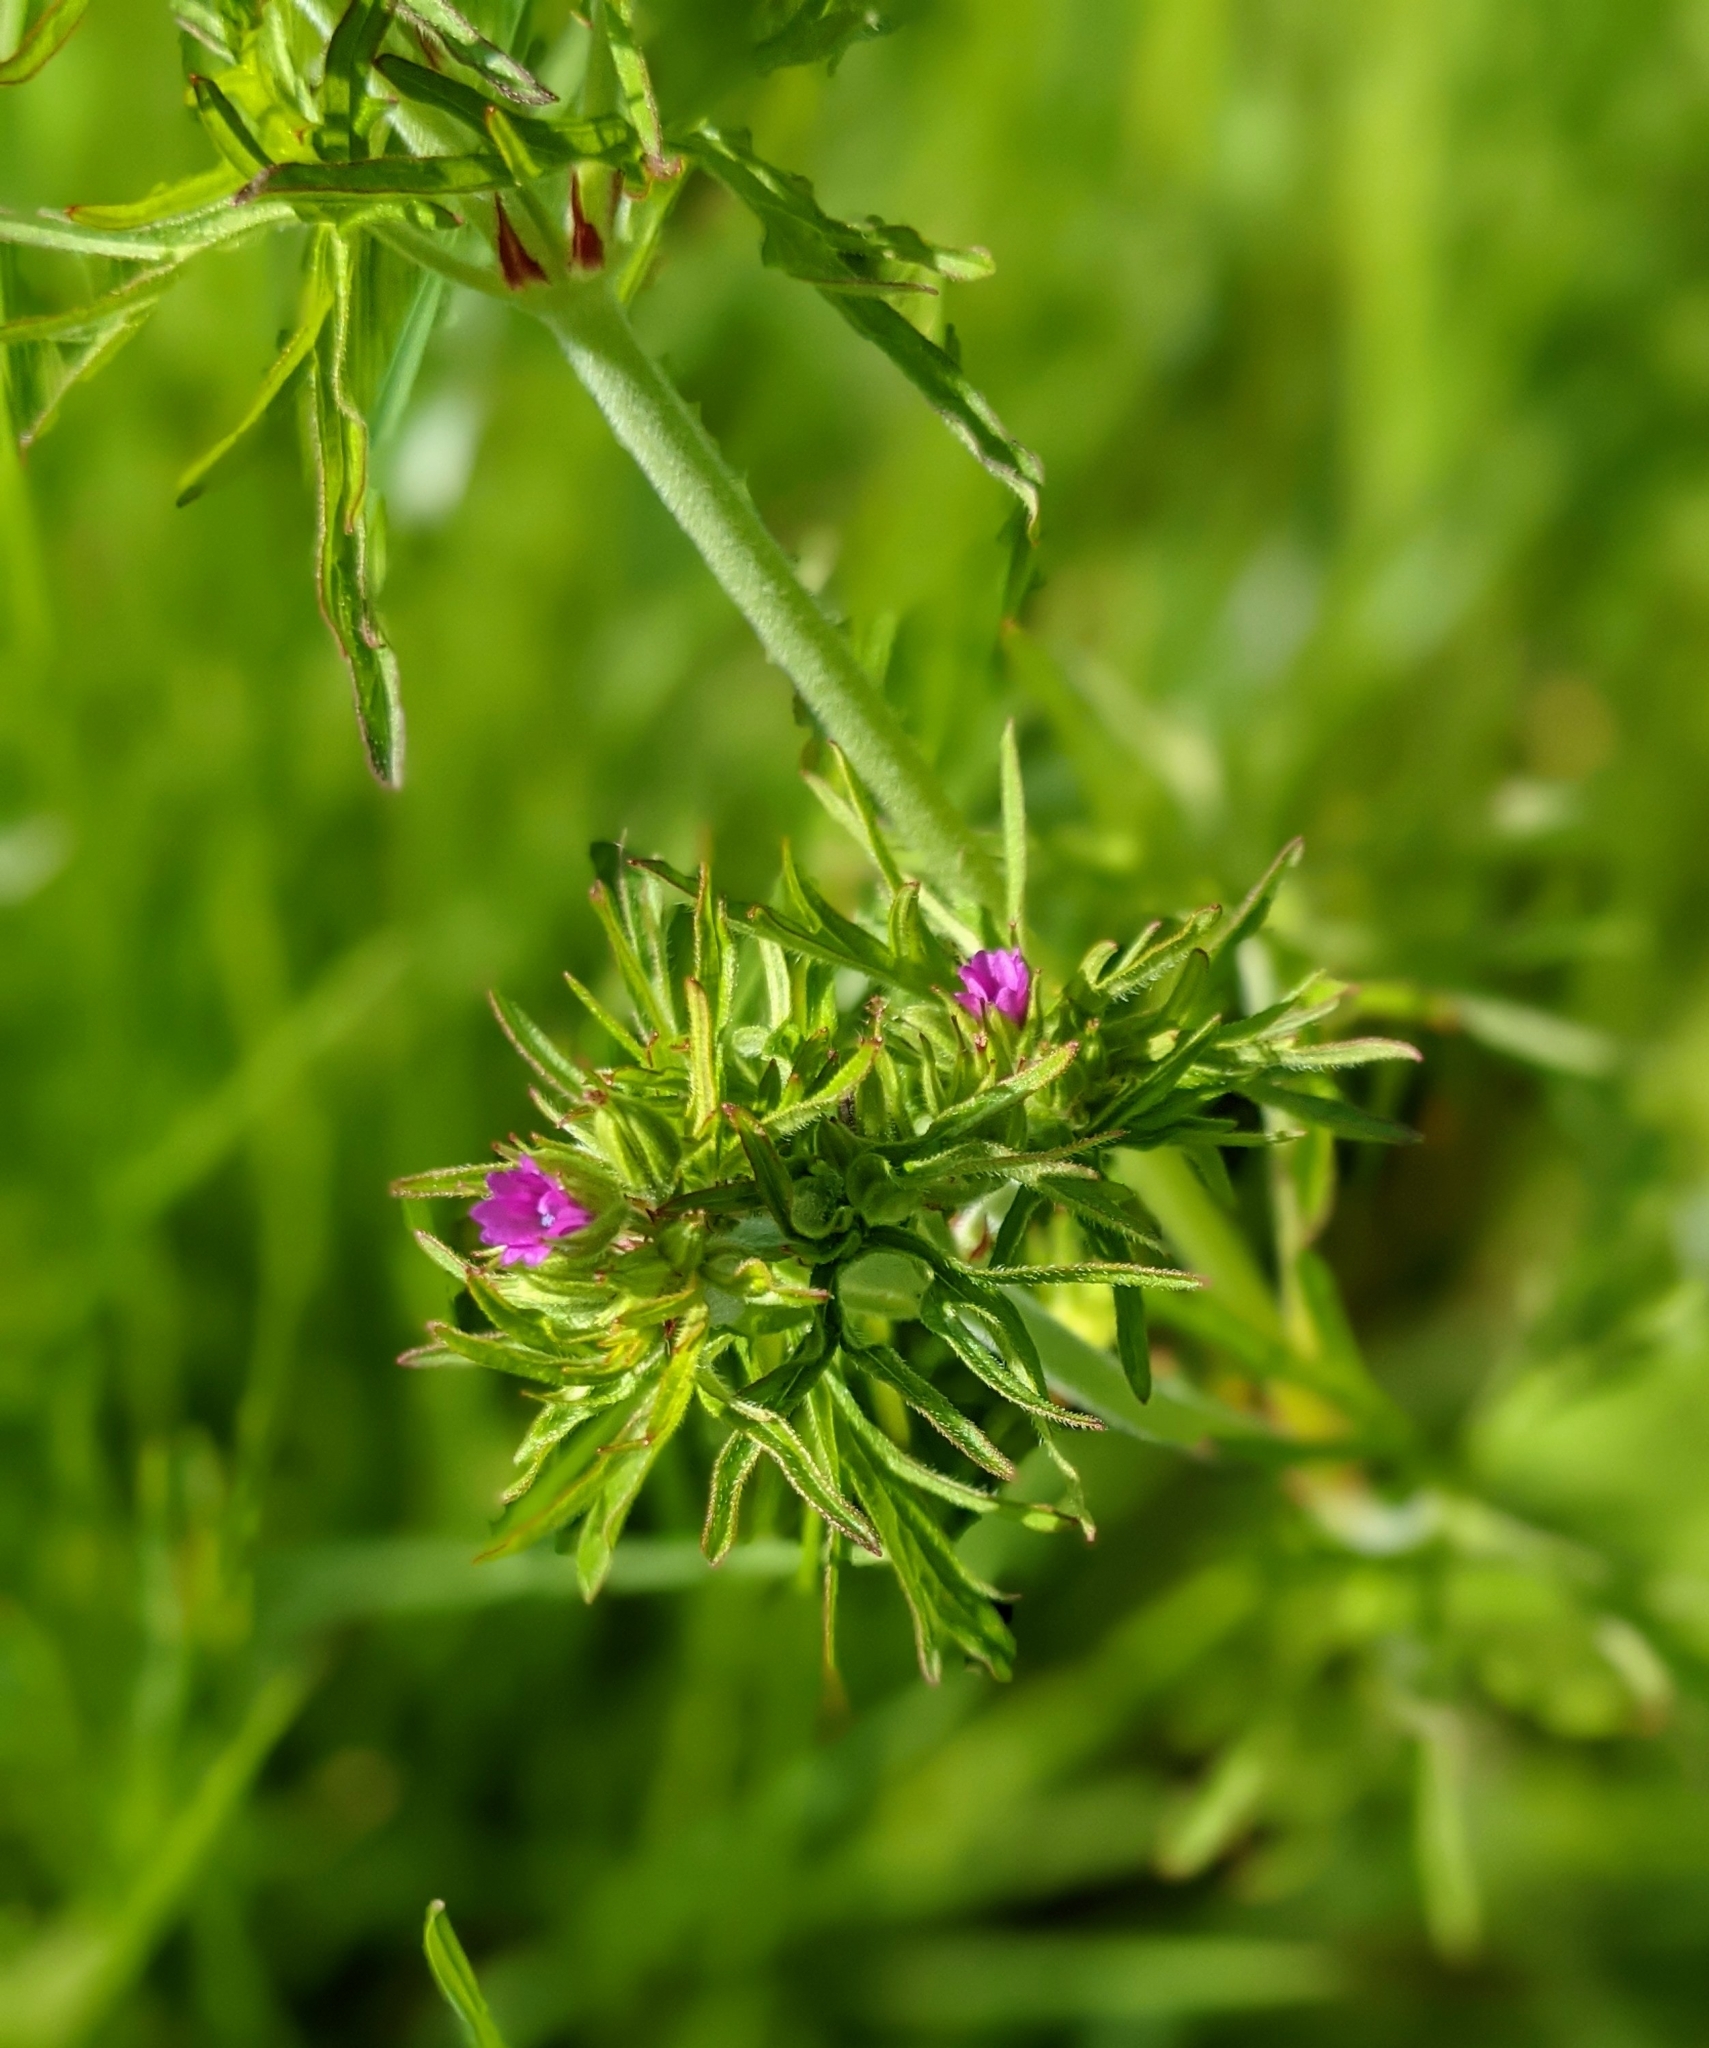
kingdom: Plantae
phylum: Tracheophyta
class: Magnoliopsida
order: Geraniales
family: Geraniaceae
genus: Geranium
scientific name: Geranium dissectum
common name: Cut-leaved crane's-bill
